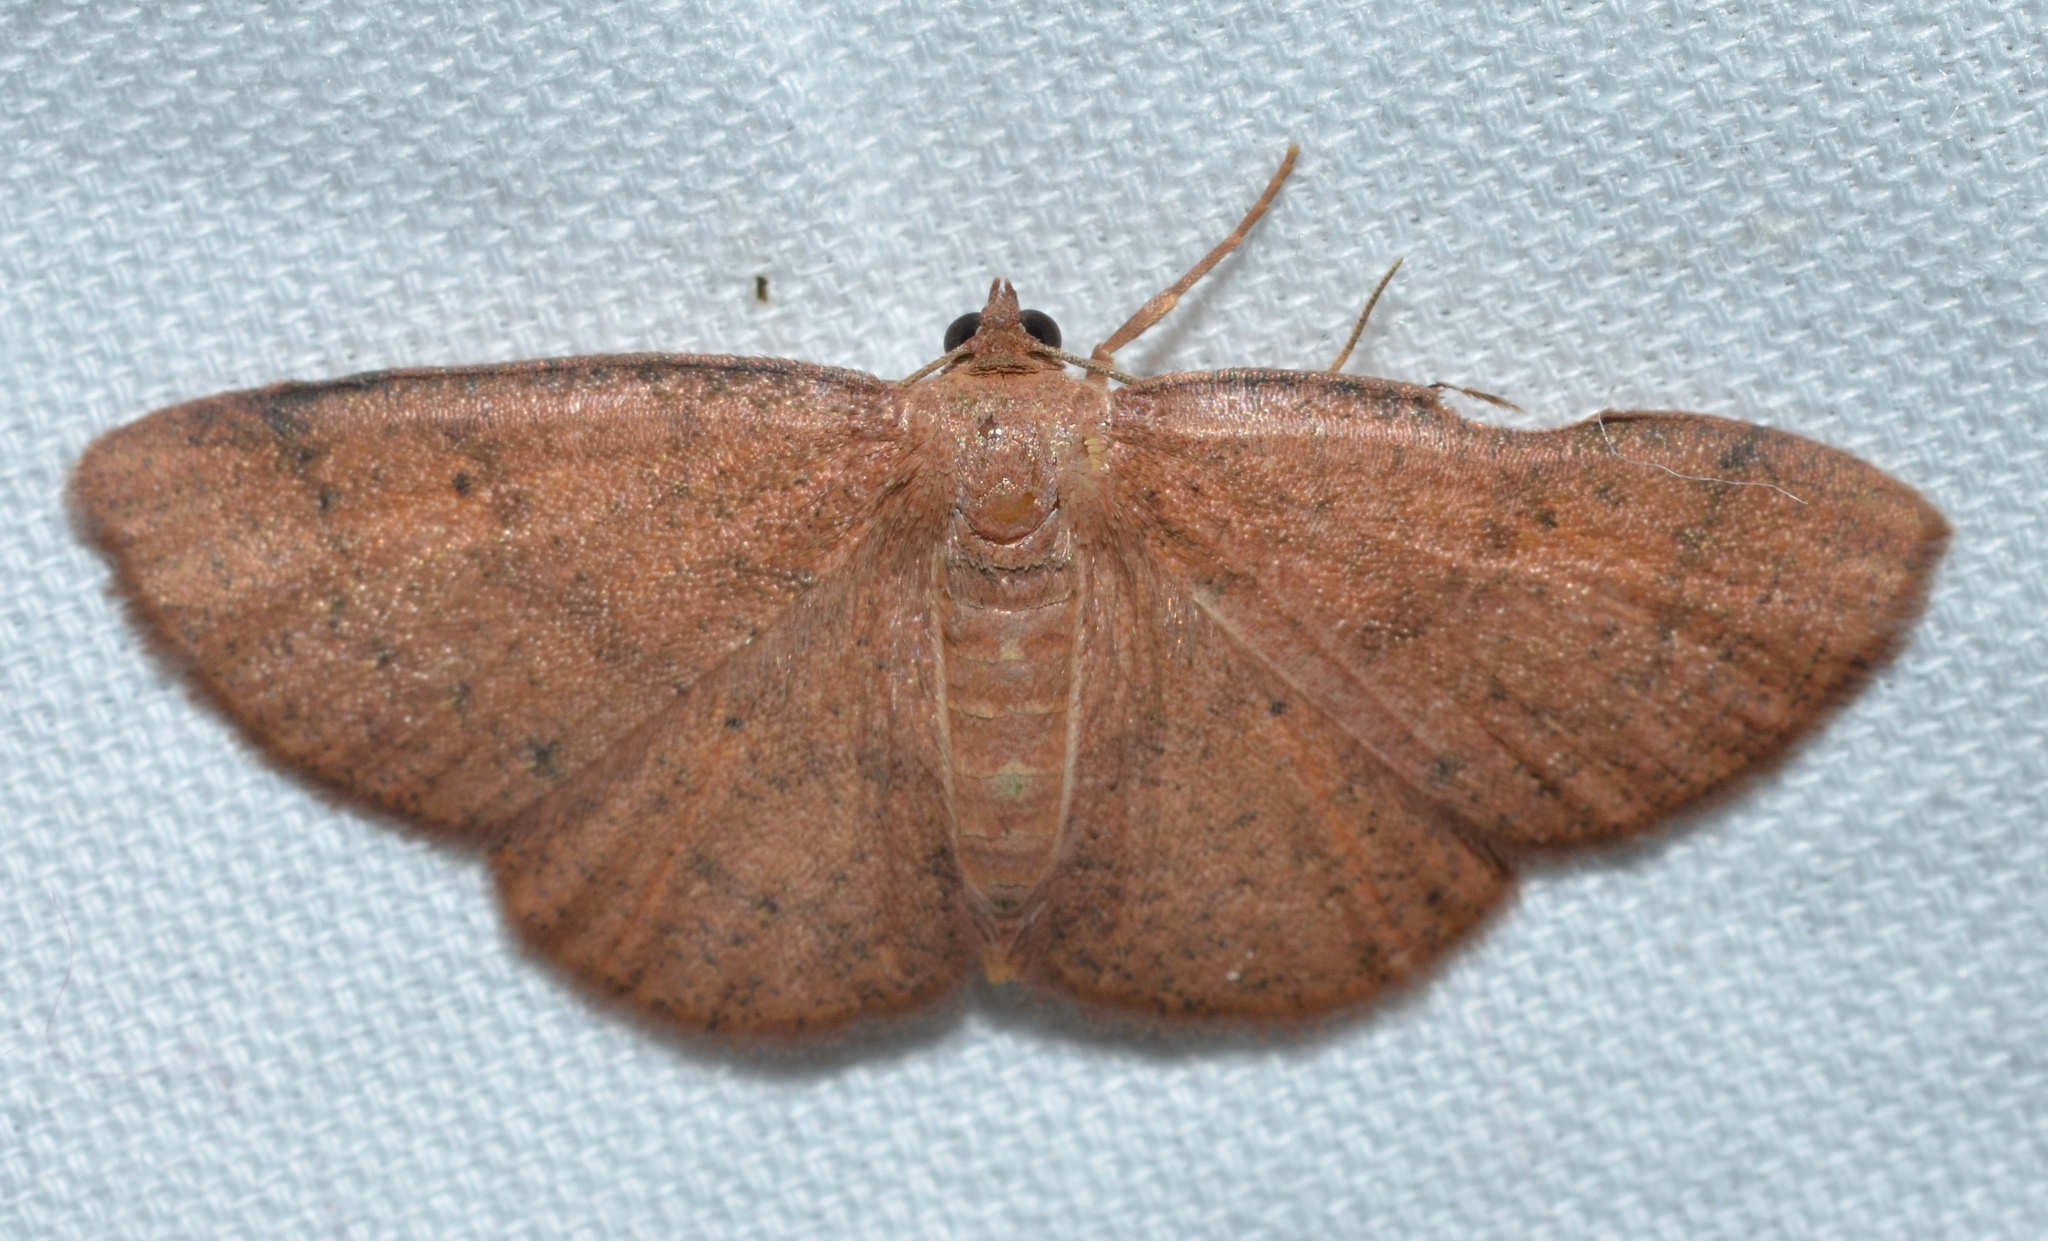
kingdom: Animalia
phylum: Arthropoda
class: Insecta
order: Lepidoptera
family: Geometridae
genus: Ilexia
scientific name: Ilexia intractata
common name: Black-dotted ruddy moth
